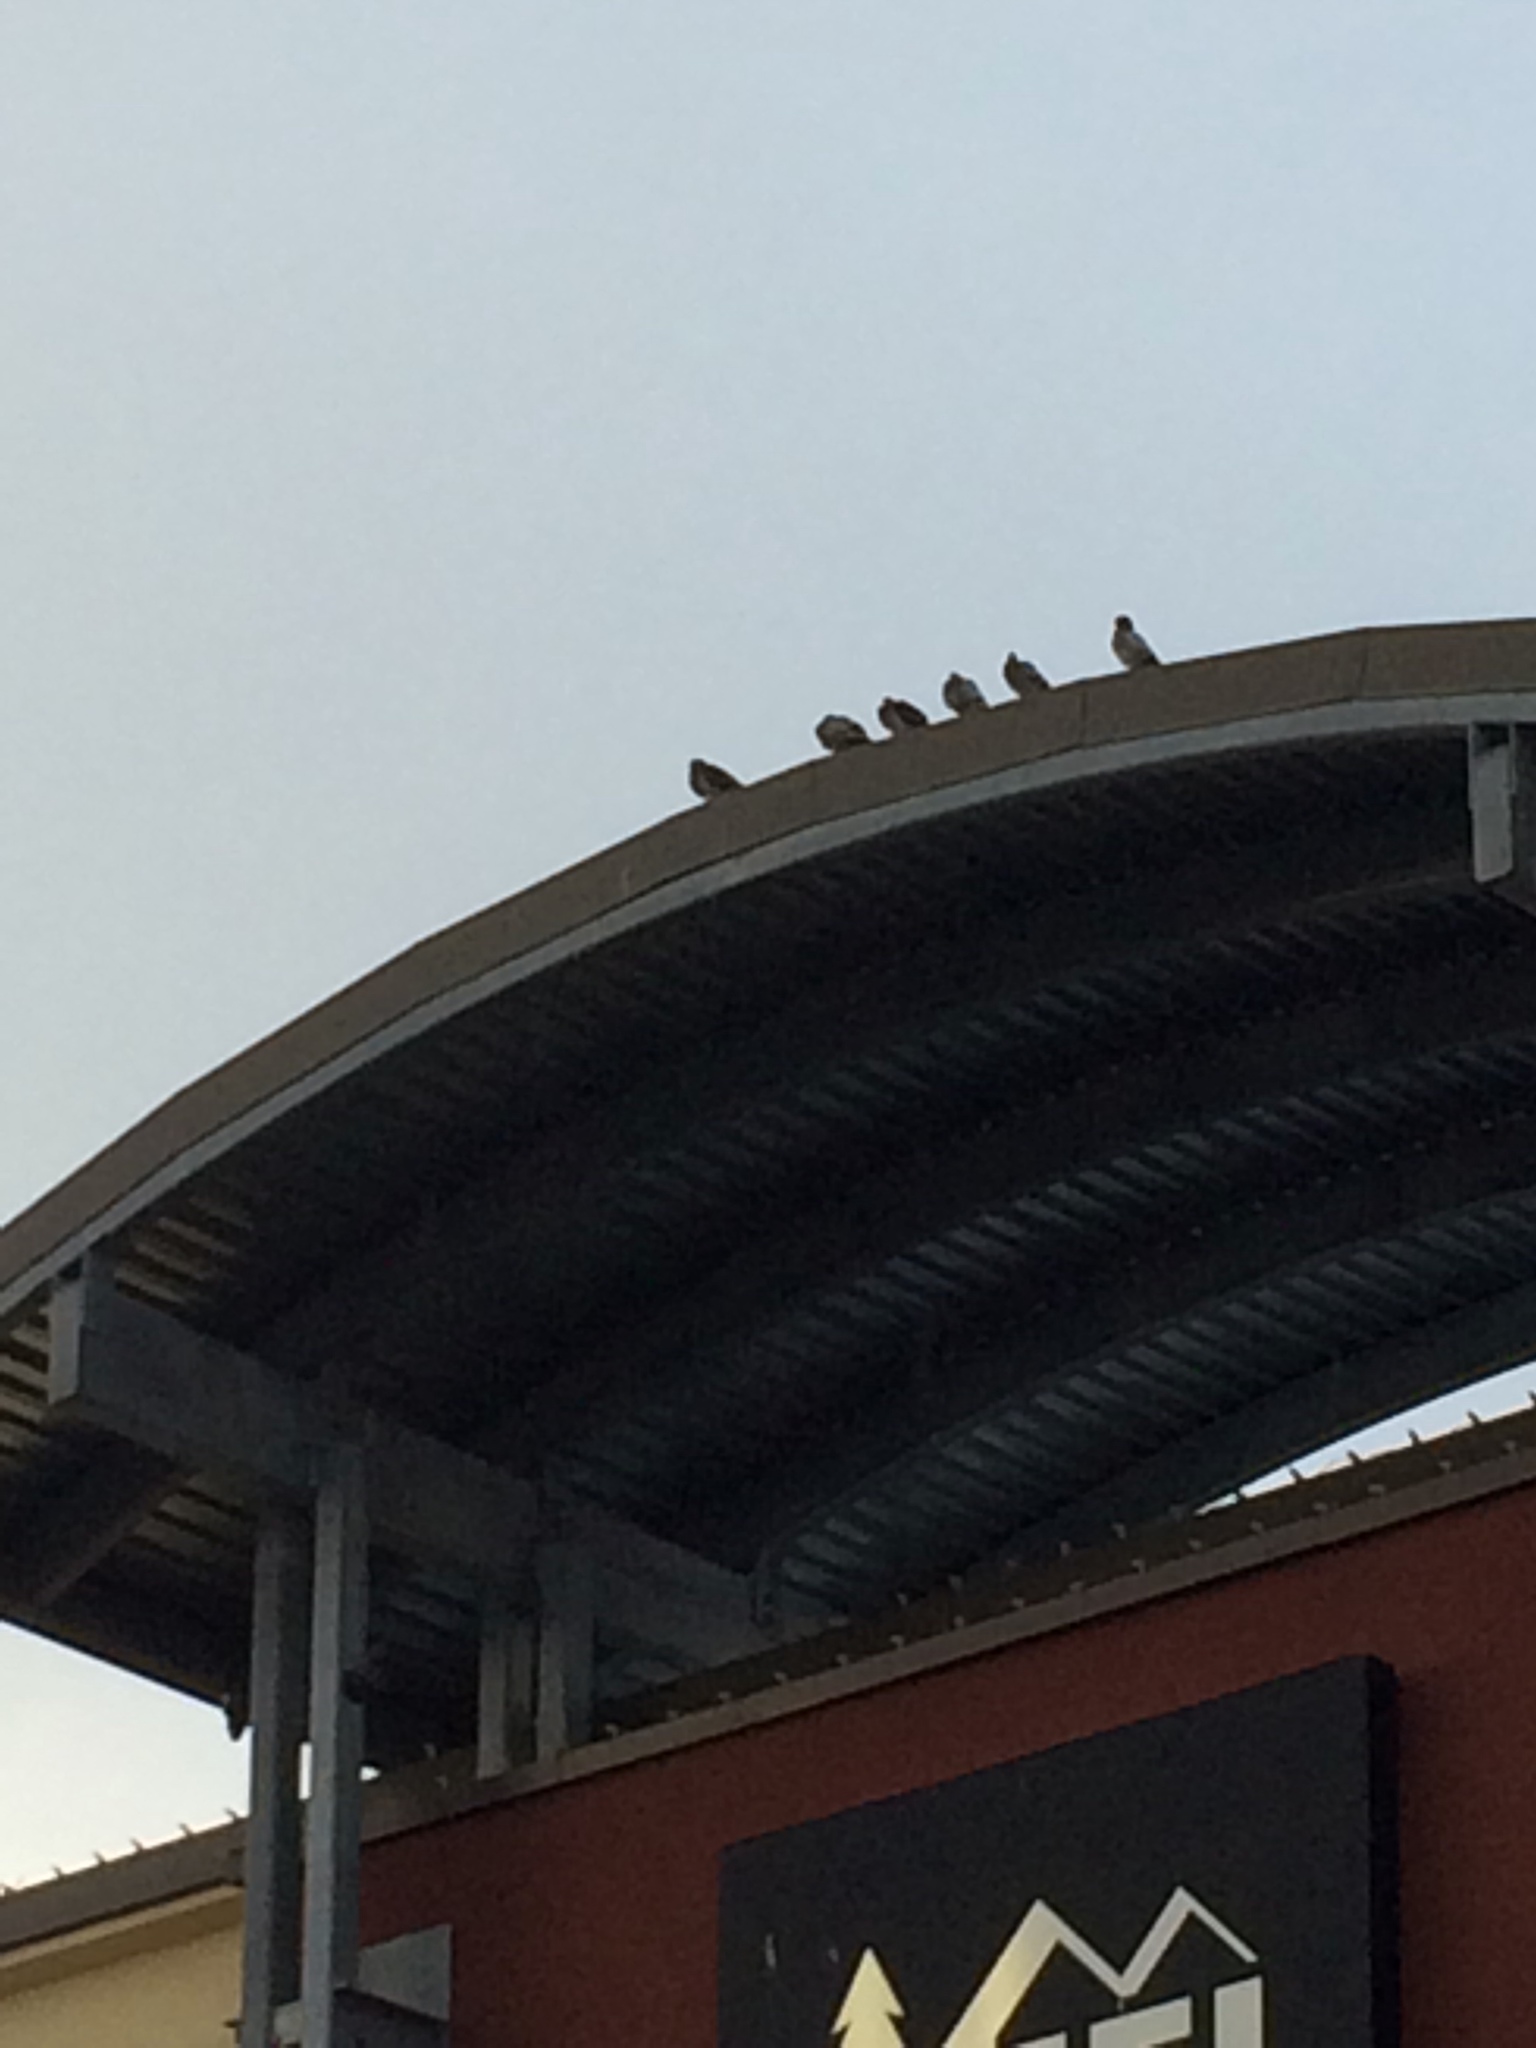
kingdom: Animalia
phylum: Chordata
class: Aves
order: Columbiformes
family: Columbidae
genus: Columba
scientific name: Columba livia
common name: Rock pigeon
